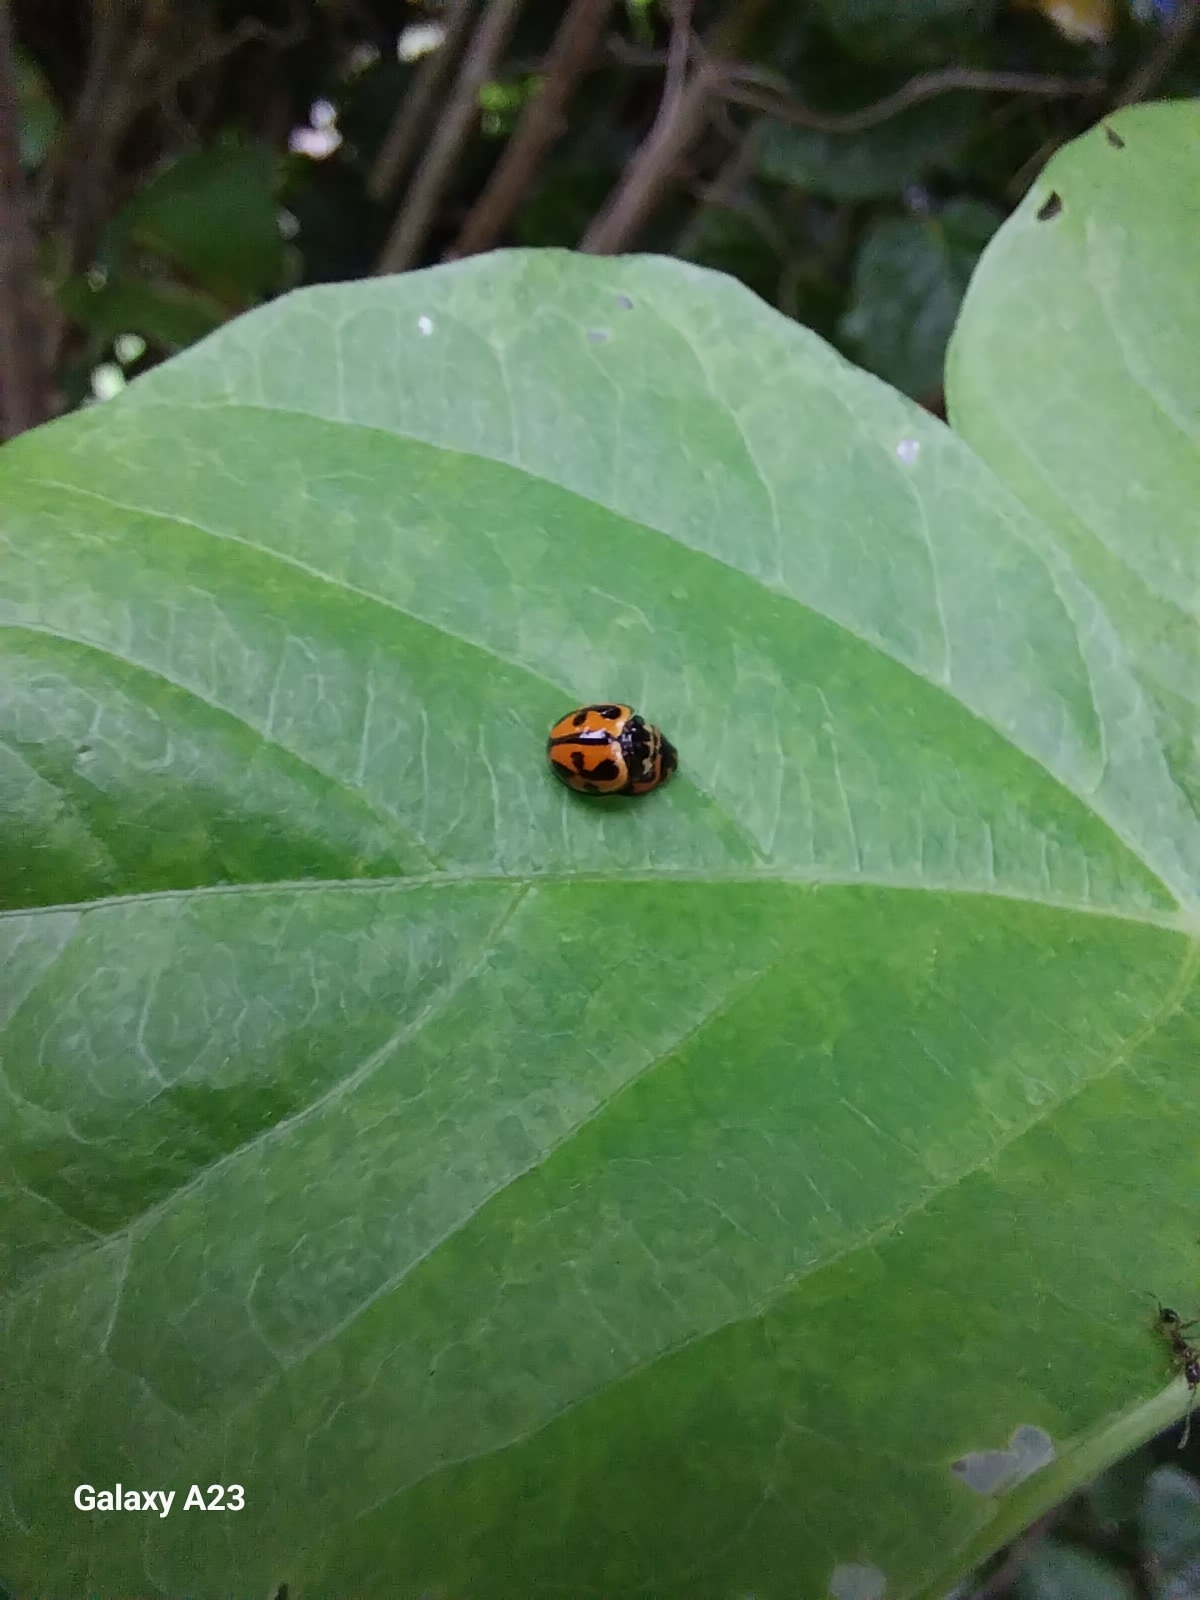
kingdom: Animalia
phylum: Arthropoda
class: Insecta
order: Coleoptera
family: Coccinellidae
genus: Coelophora
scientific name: Coelophora inaequalis
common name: Common australian lady beetle
